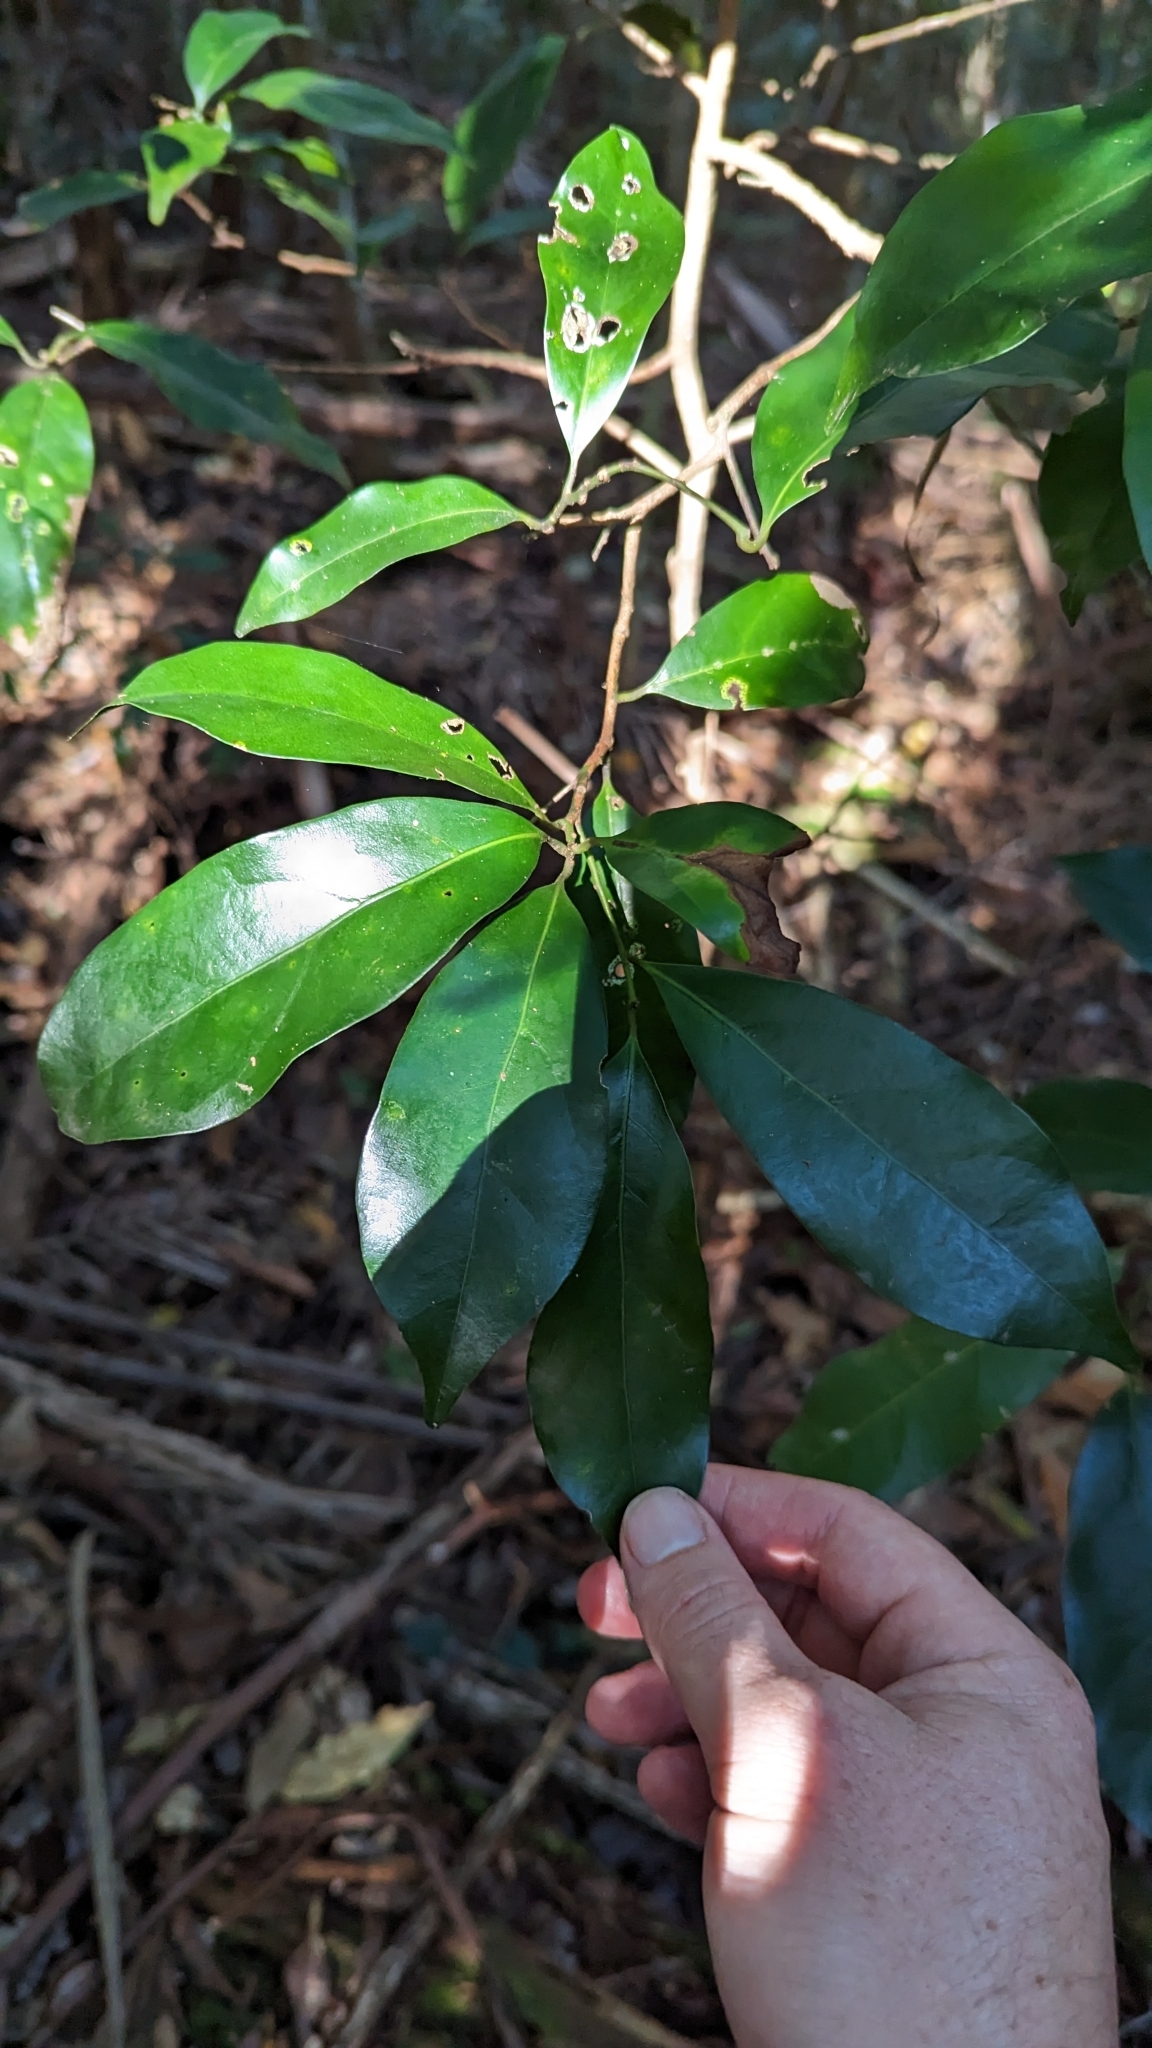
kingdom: Plantae
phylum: Tracheophyta
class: Magnoliopsida
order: Laurales
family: Lauraceae
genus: Endiandra
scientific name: Endiandra discolor
